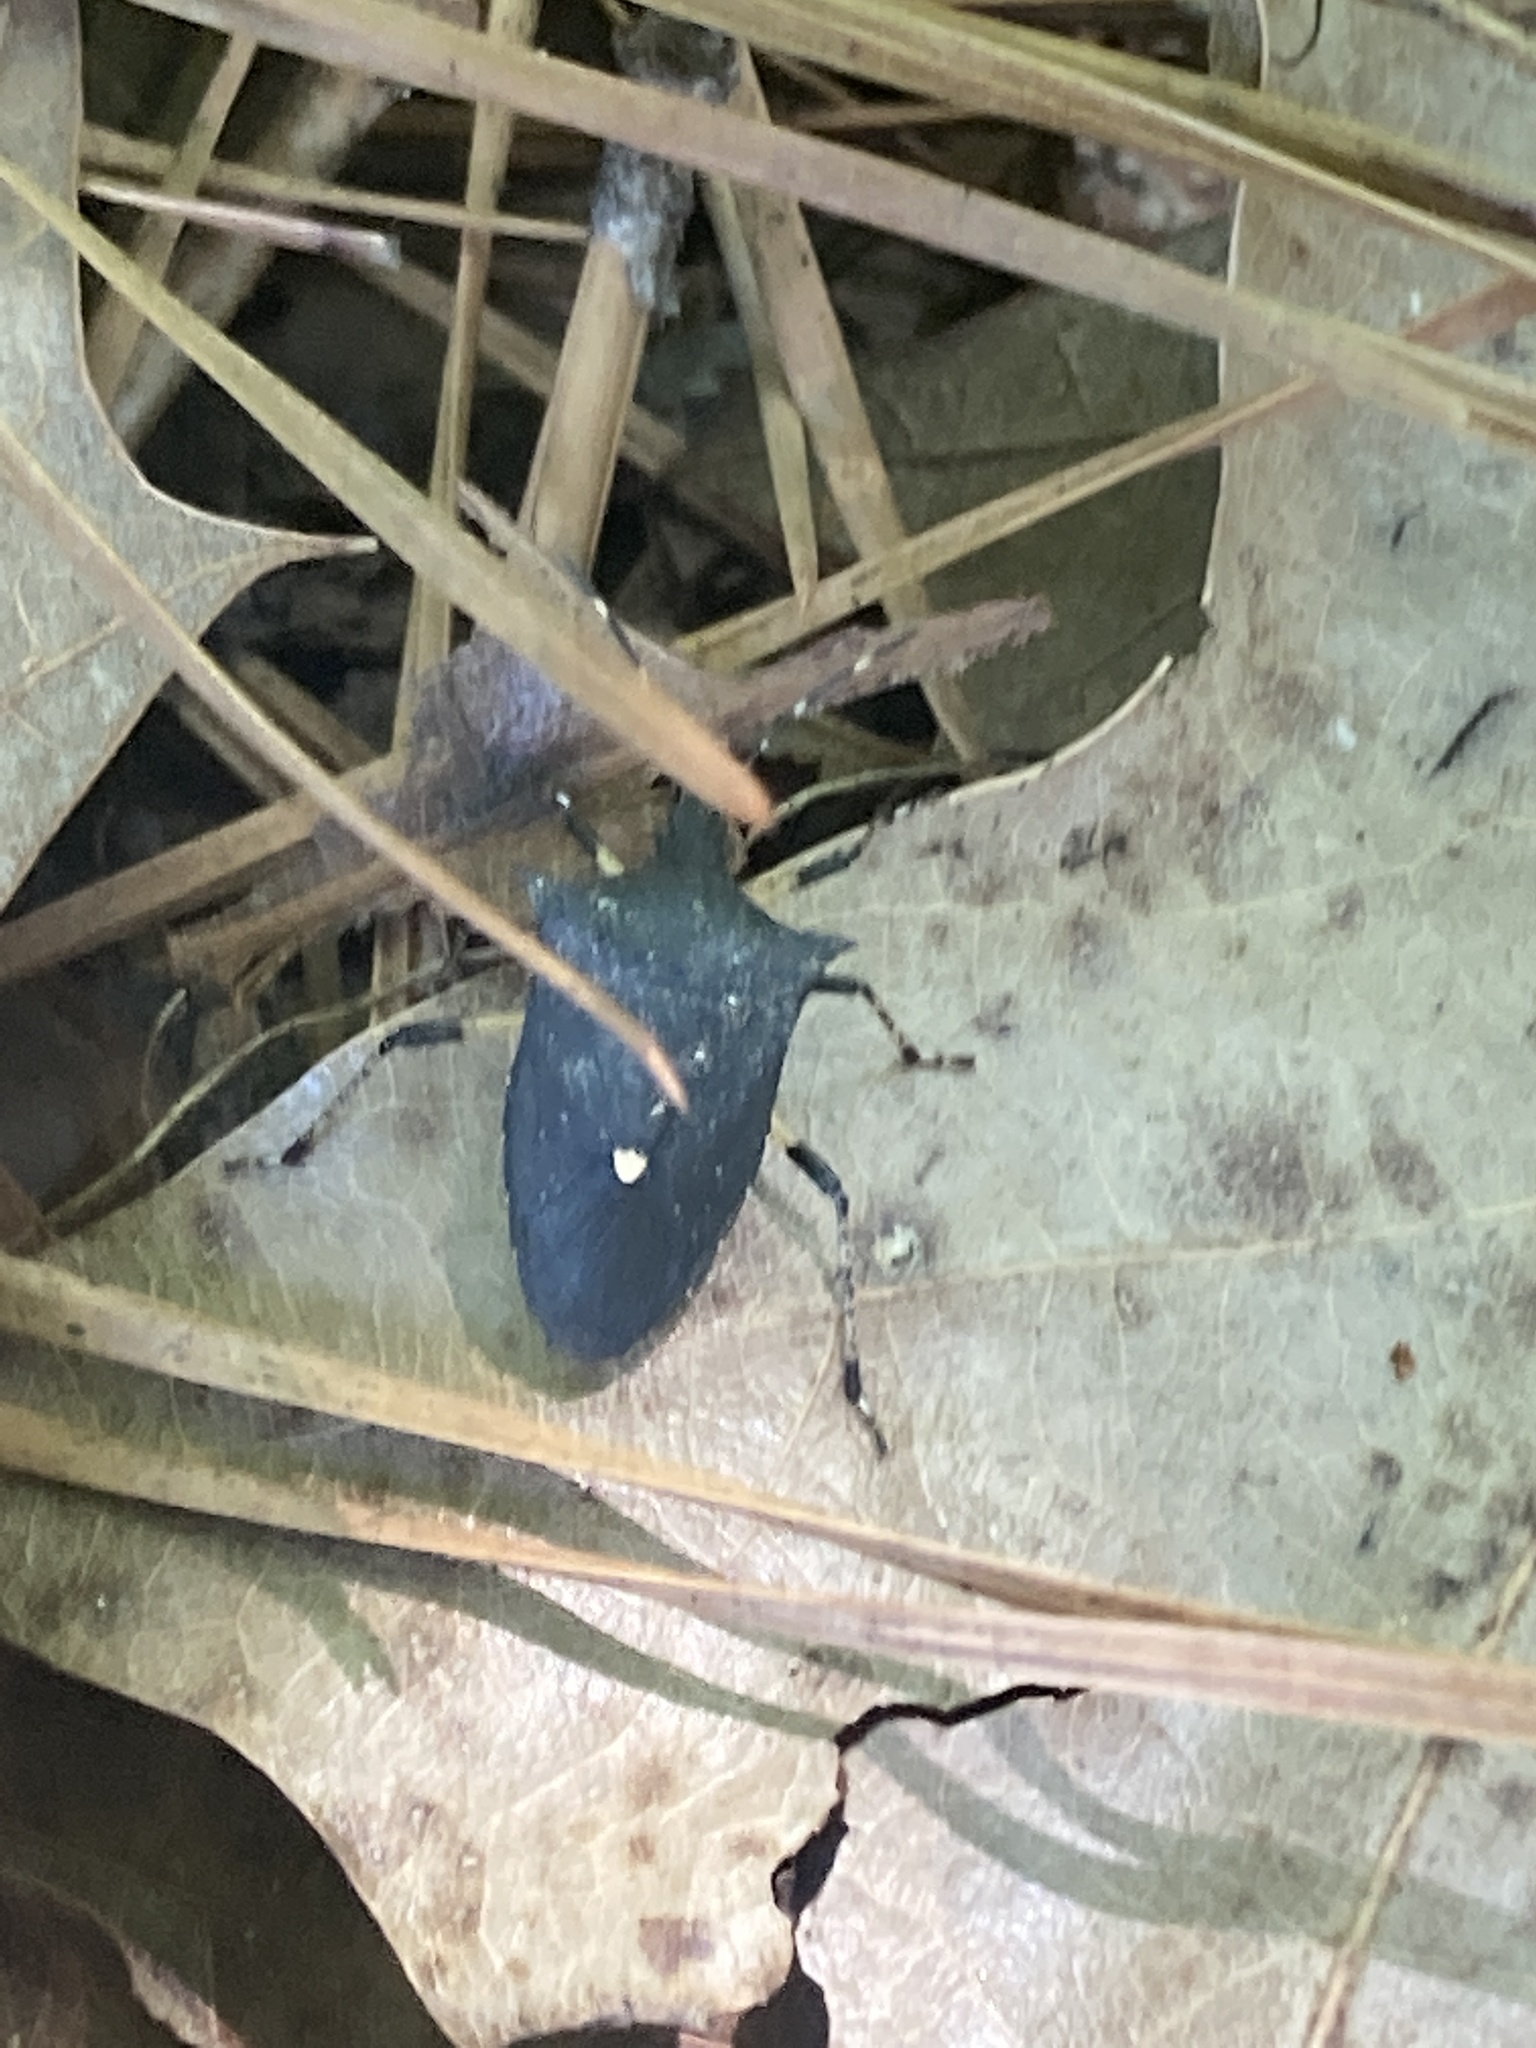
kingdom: Animalia
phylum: Arthropoda
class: Insecta
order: Hemiptera
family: Pentatomidae
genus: Proxys
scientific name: Proxys punctulatus
